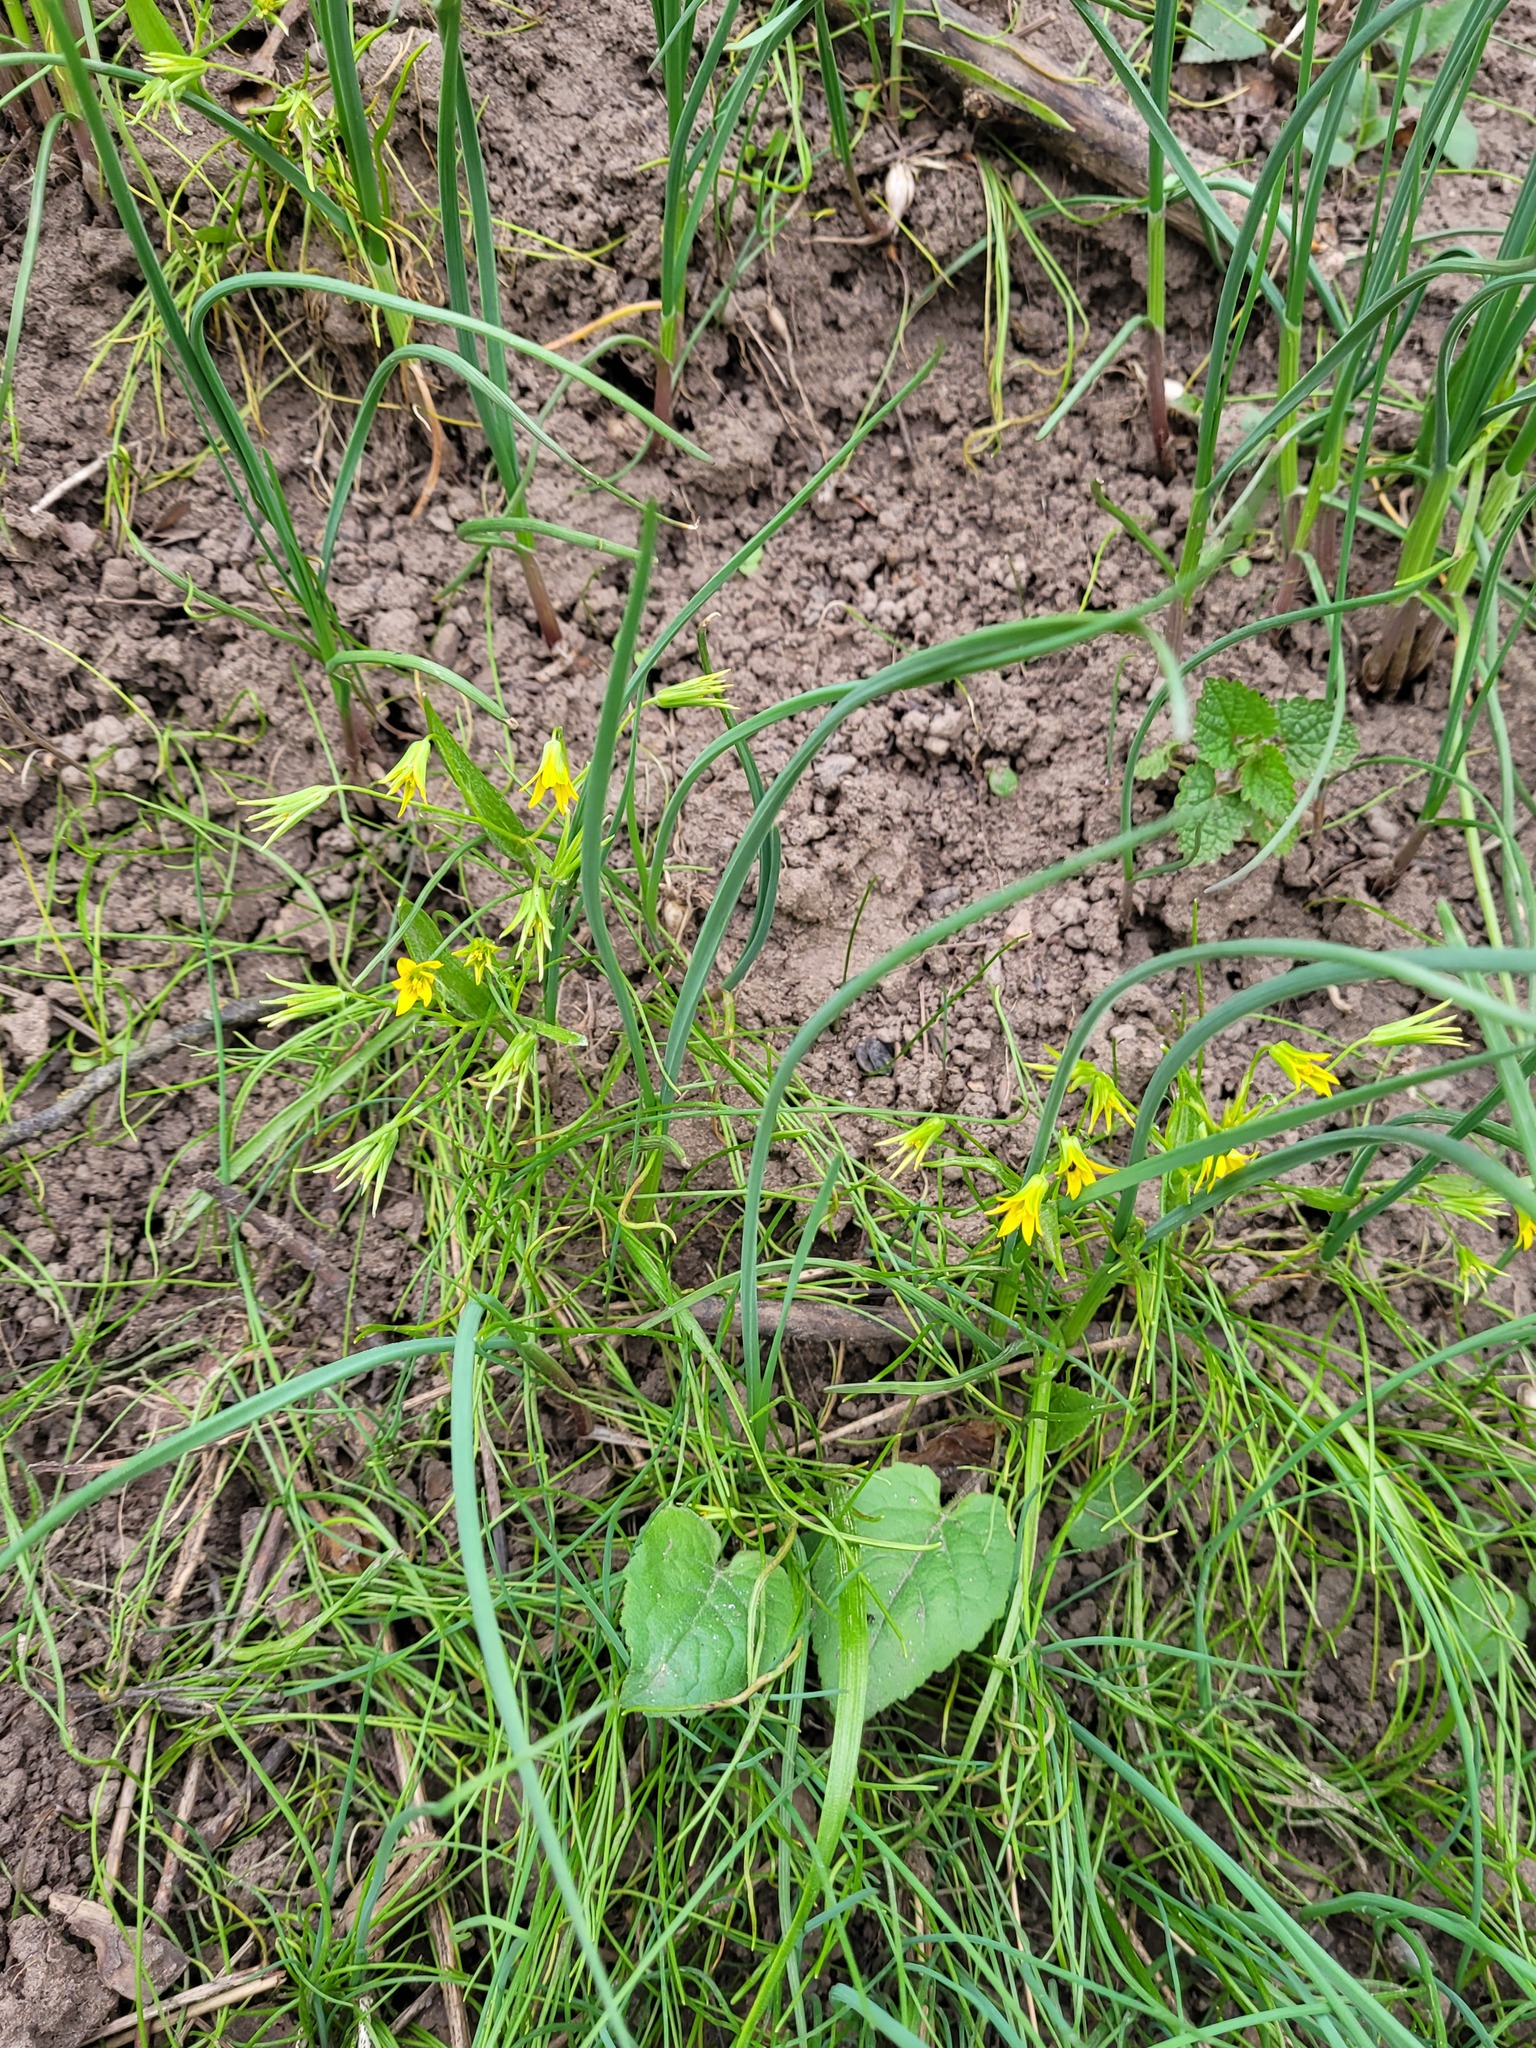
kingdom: Plantae
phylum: Tracheophyta
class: Liliopsida
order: Liliales
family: Liliaceae
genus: Gagea
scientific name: Gagea minima
